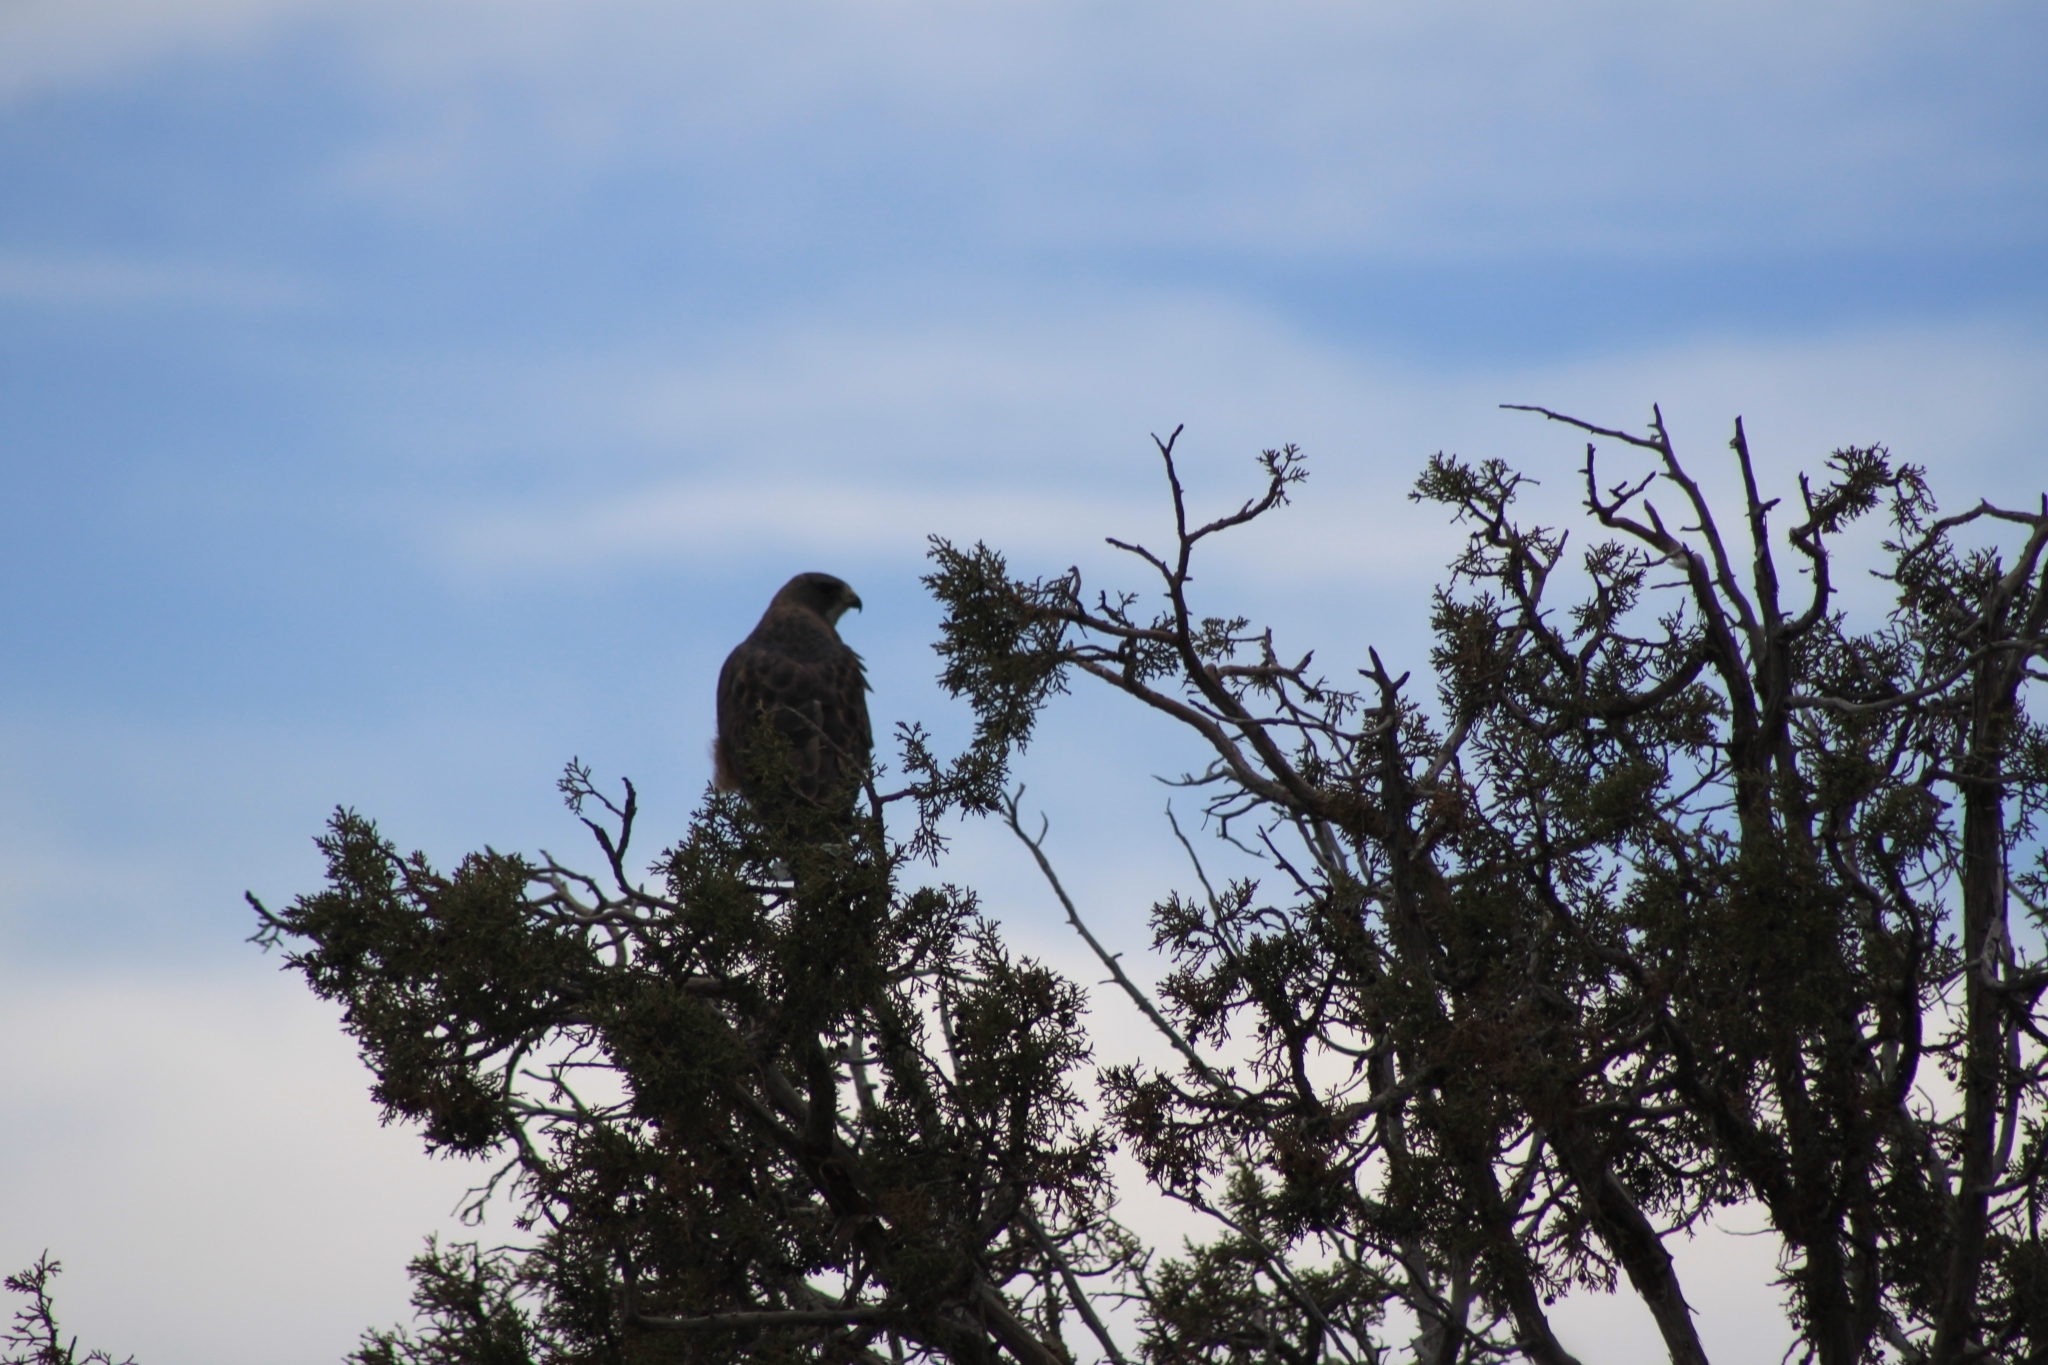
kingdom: Animalia
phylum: Chordata
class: Aves
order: Accipitriformes
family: Accipitridae
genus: Buteo
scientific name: Buteo swainsoni
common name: Swainson's hawk
